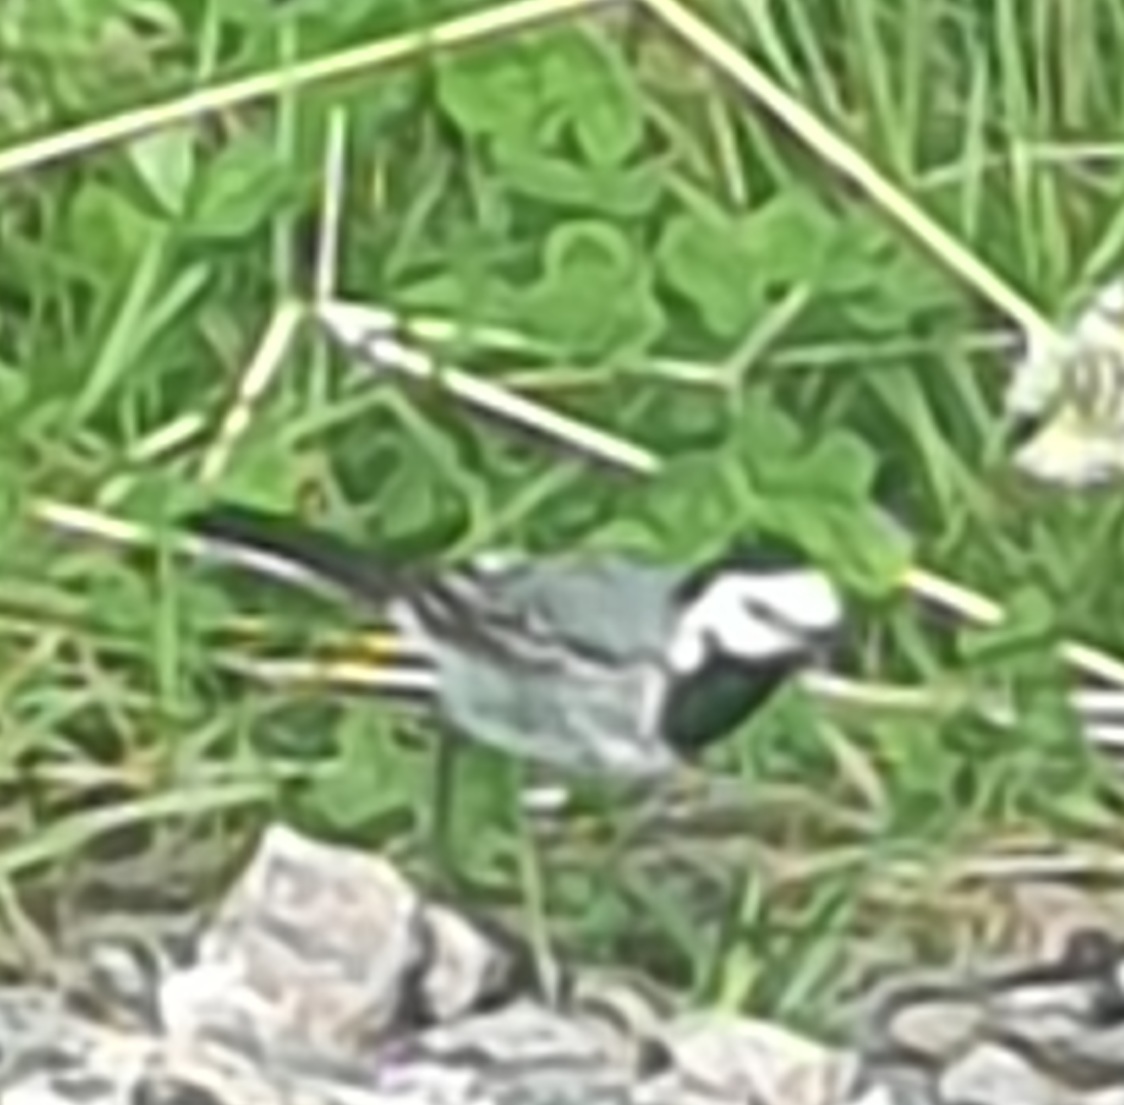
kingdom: Animalia
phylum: Chordata
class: Aves
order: Passeriformes
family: Motacillidae
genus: Motacilla
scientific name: Motacilla alba
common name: White wagtail
